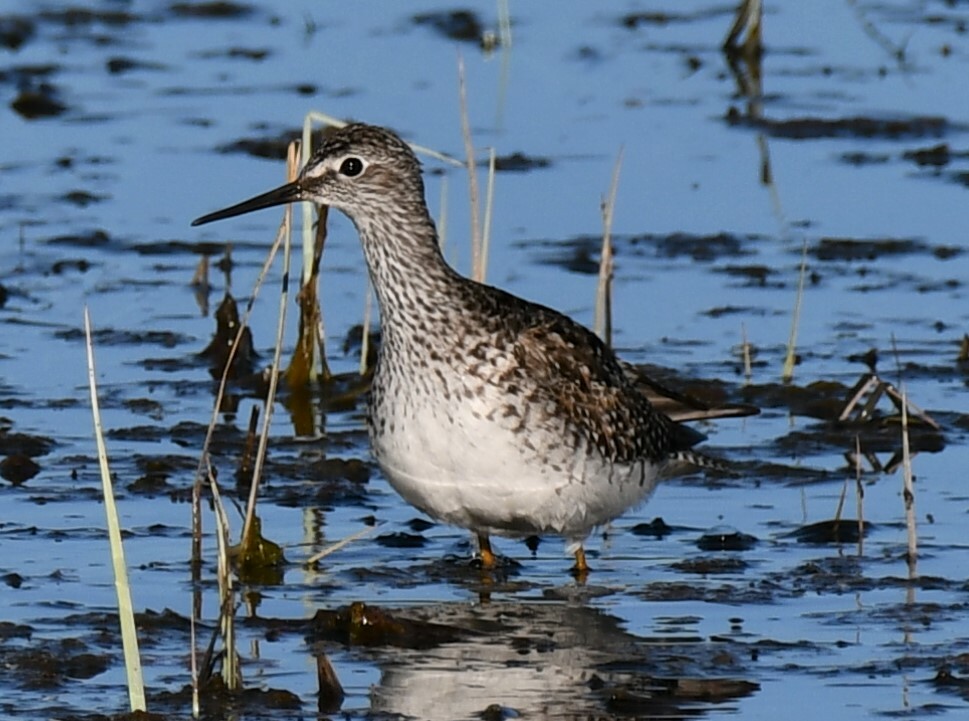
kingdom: Animalia
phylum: Chordata
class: Aves
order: Charadriiformes
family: Scolopacidae
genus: Tringa
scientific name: Tringa flavipes
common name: Lesser yellowlegs
